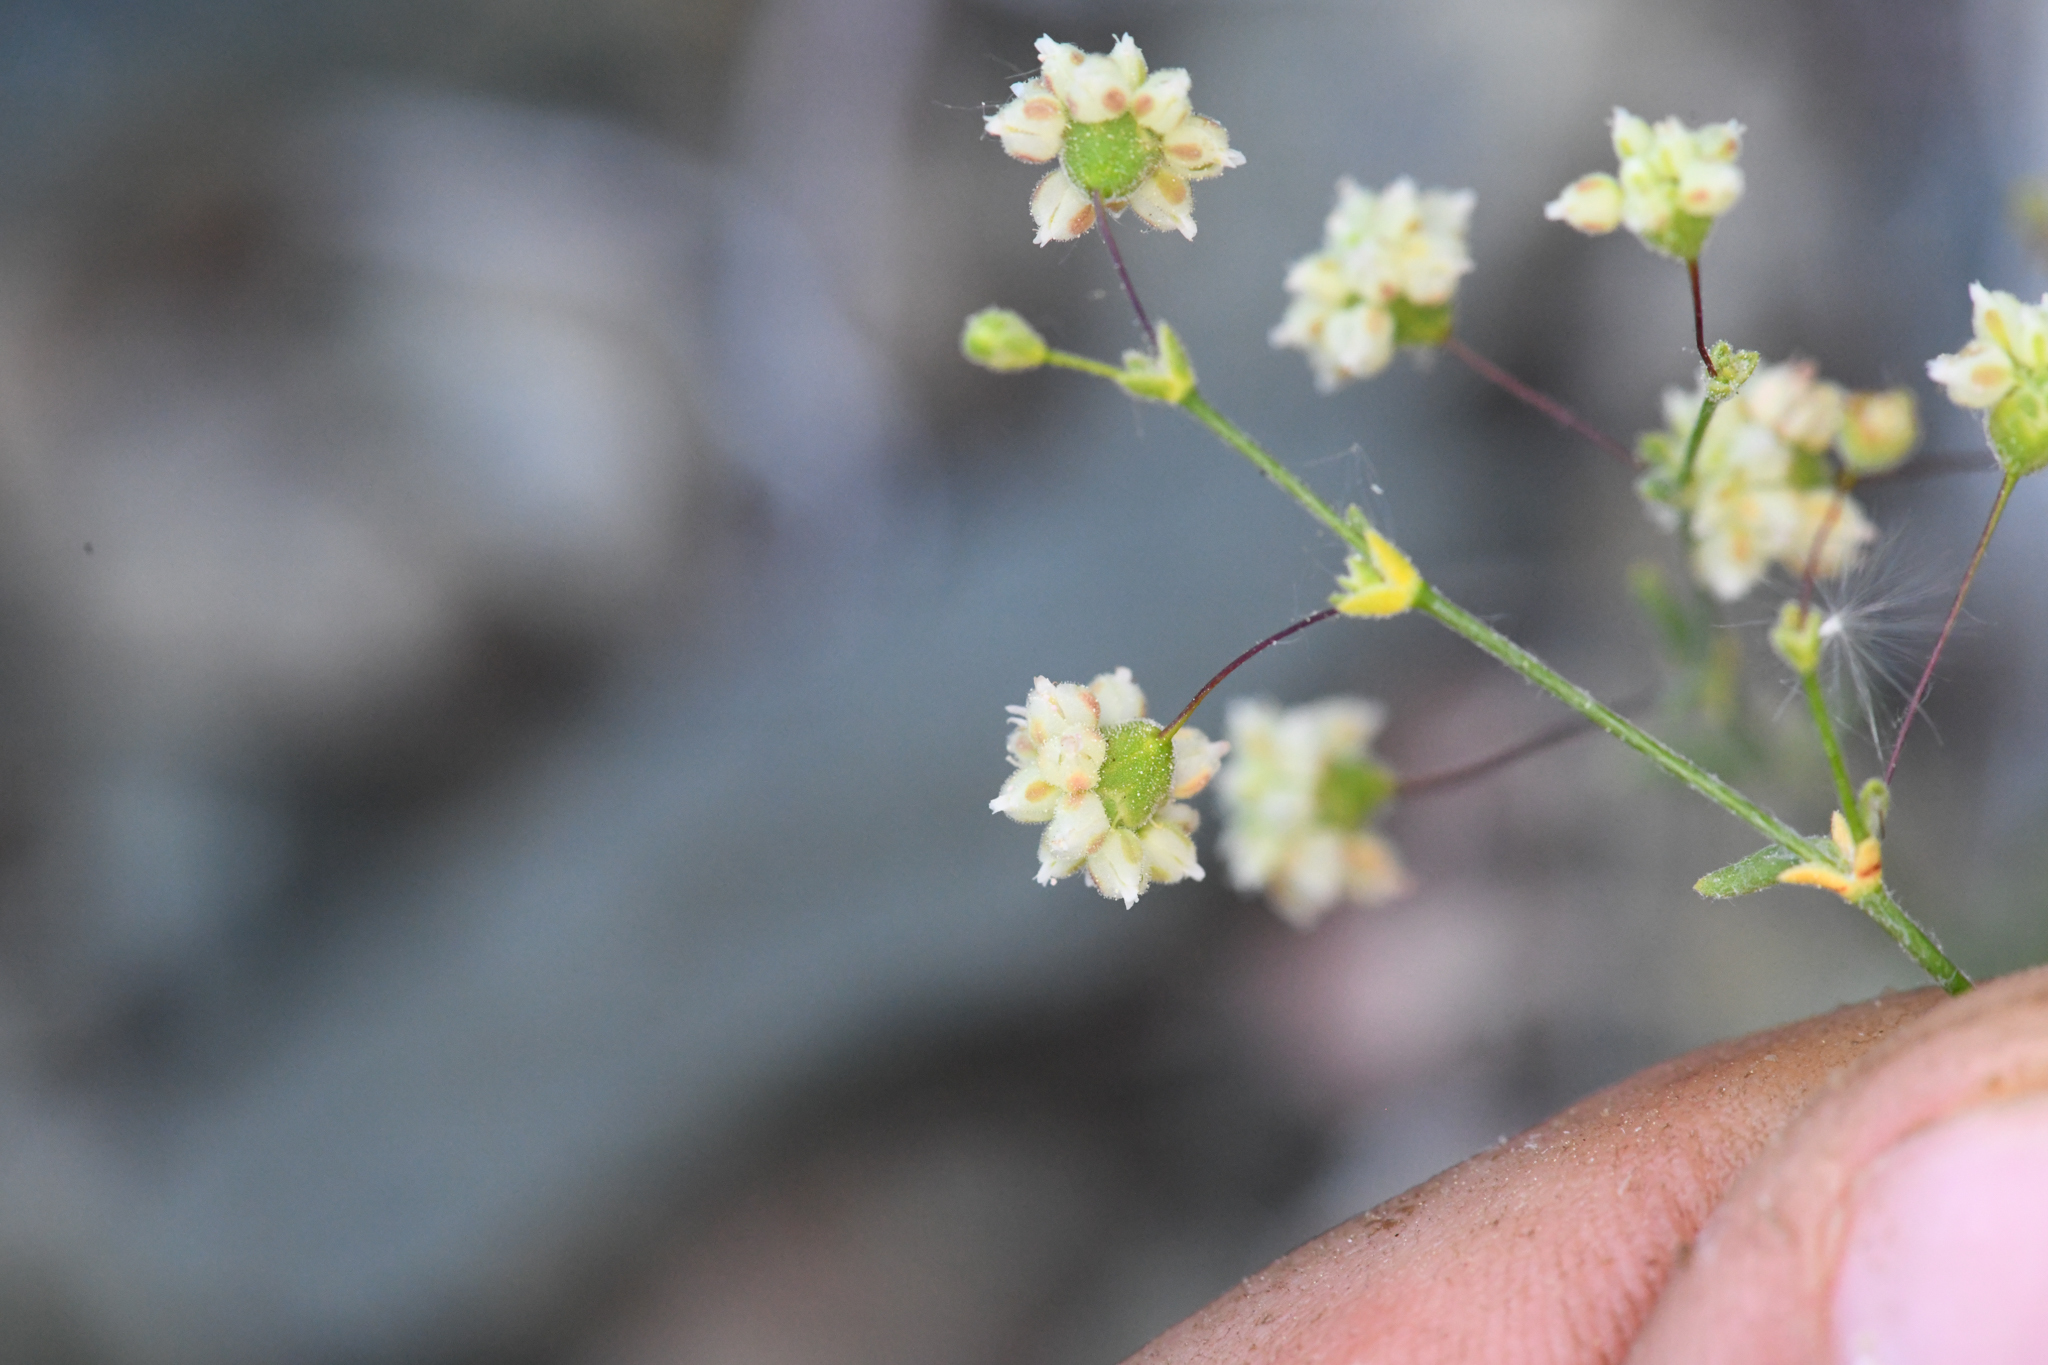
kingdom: Plantae
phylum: Tracheophyta
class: Magnoliopsida
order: Caryophyllales
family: Polygonaceae
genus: Eriogonum
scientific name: Eriogonum maculatum
